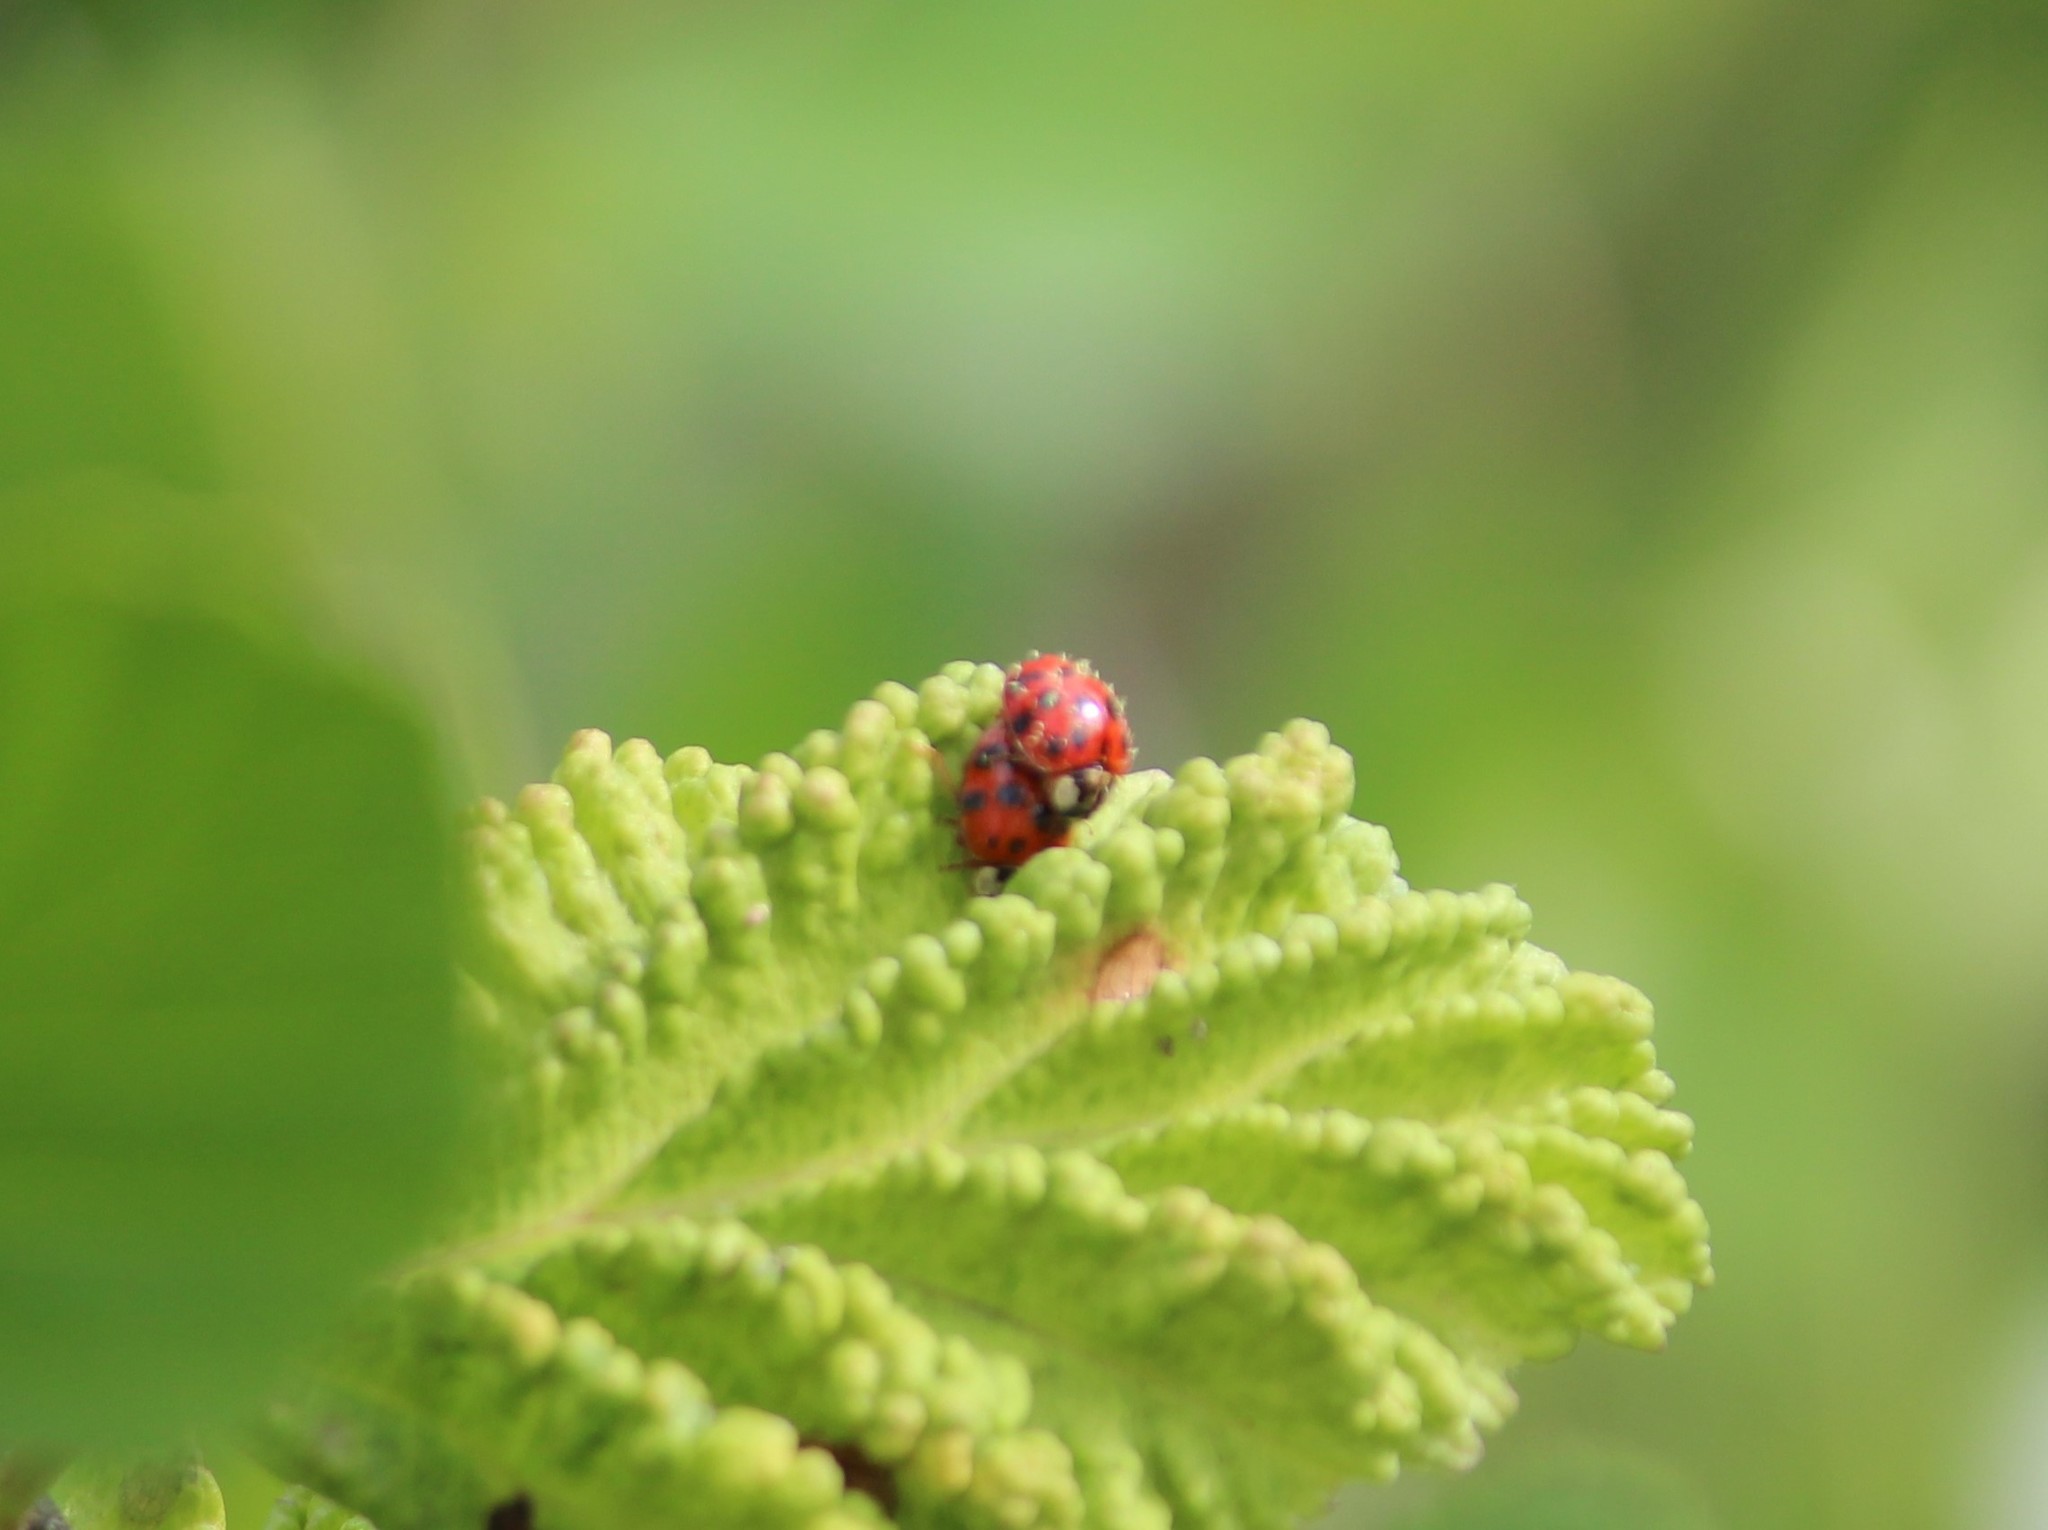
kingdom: Animalia
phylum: Arthropoda
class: Insecta
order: Coleoptera
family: Coccinellidae
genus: Harmonia
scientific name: Harmonia axyridis
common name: Harlequin ladybird
